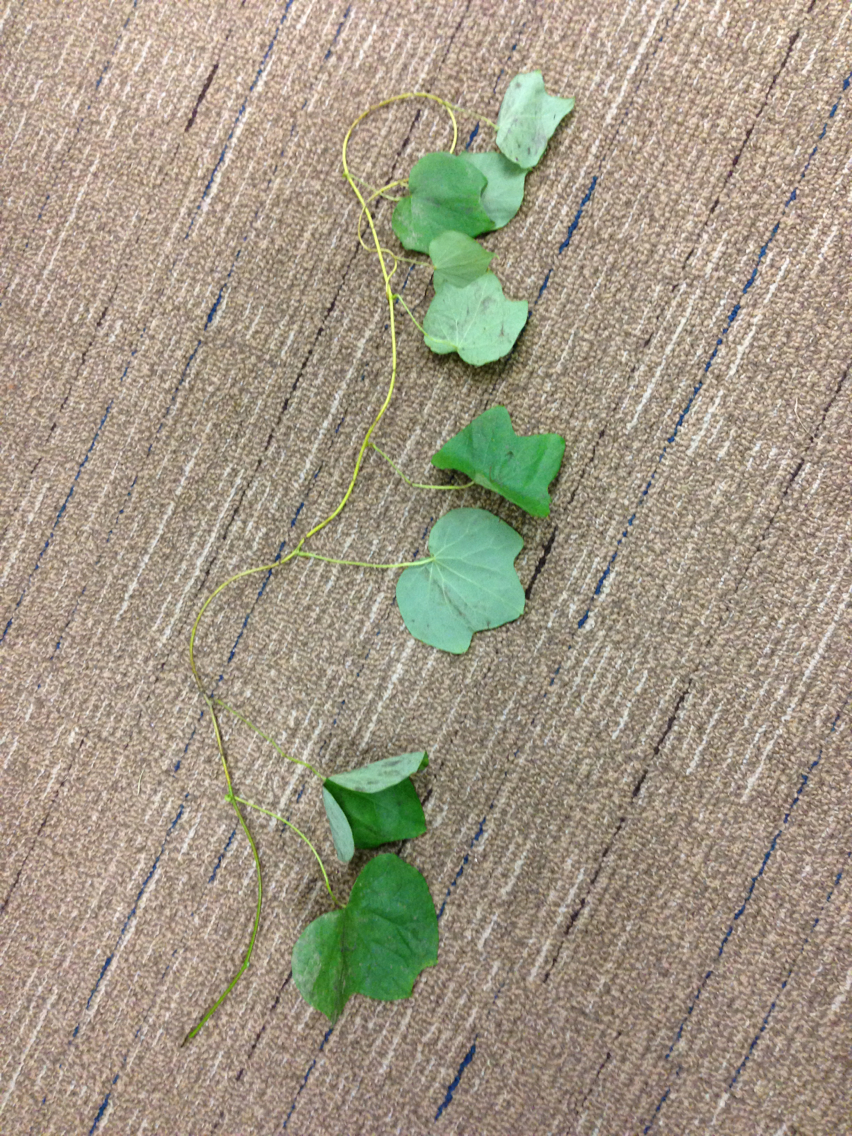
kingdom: Plantae
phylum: Tracheophyta
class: Magnoliopsida
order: Ranunculales
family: Menispermaceae
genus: Menispermum
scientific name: Menispermum canadense
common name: Moonseed
